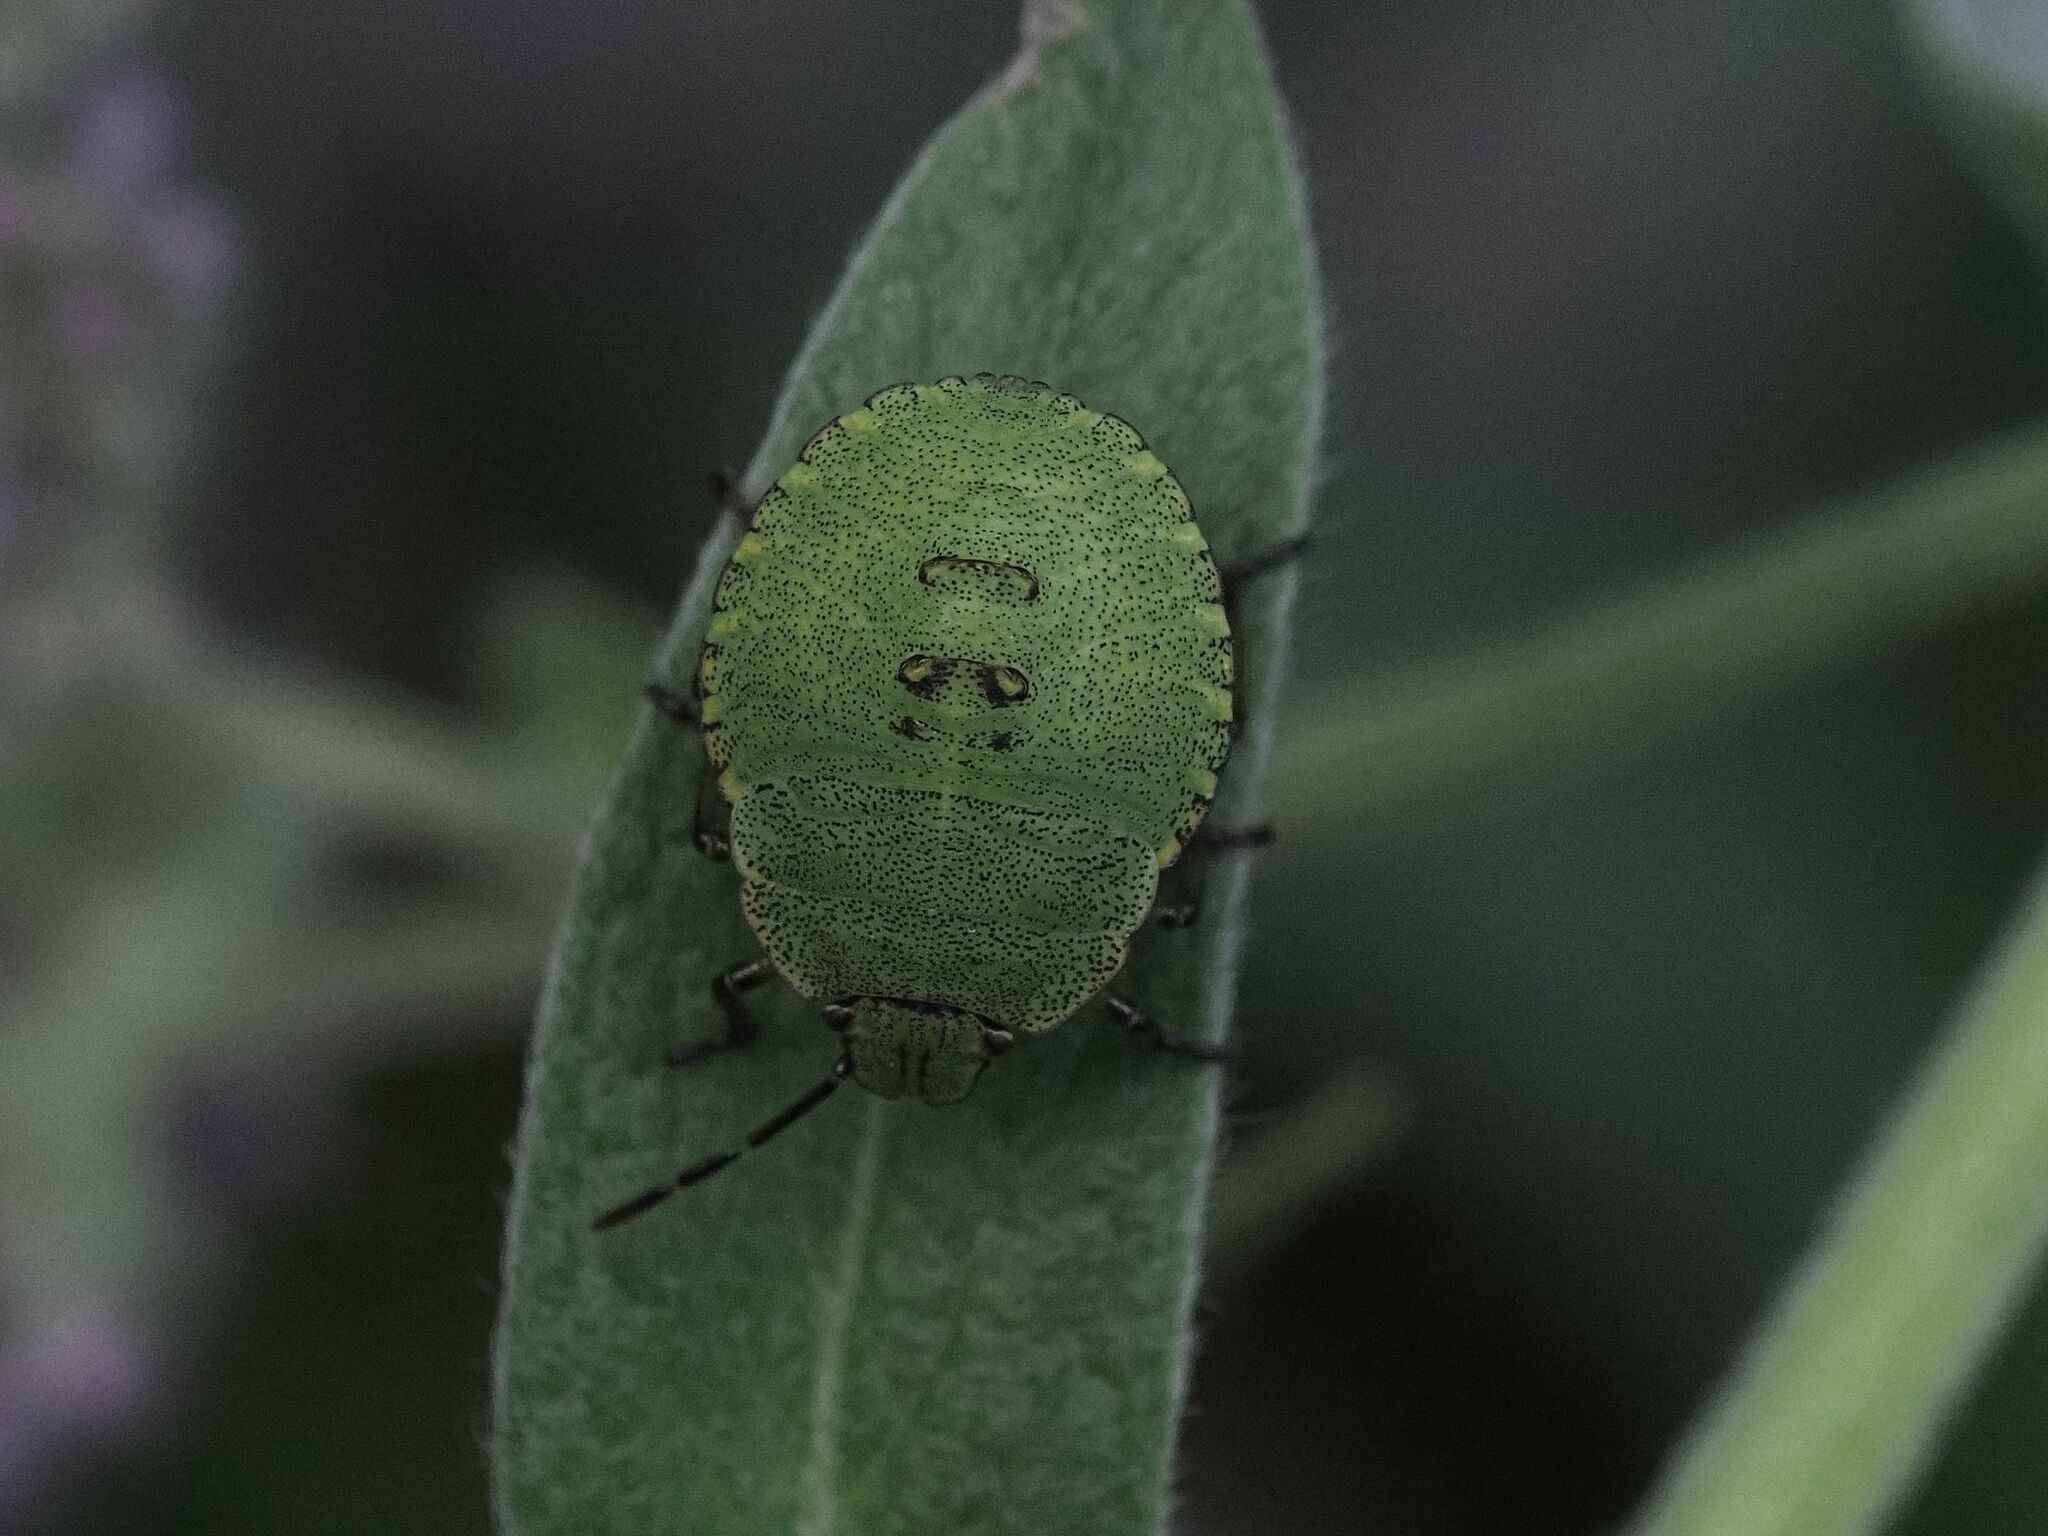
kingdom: Animalia
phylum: Arthropoda
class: Insecta
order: Hemiptera
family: Pentatomidae
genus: Palomena
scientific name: Palomena prasina
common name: Green shieldbug
